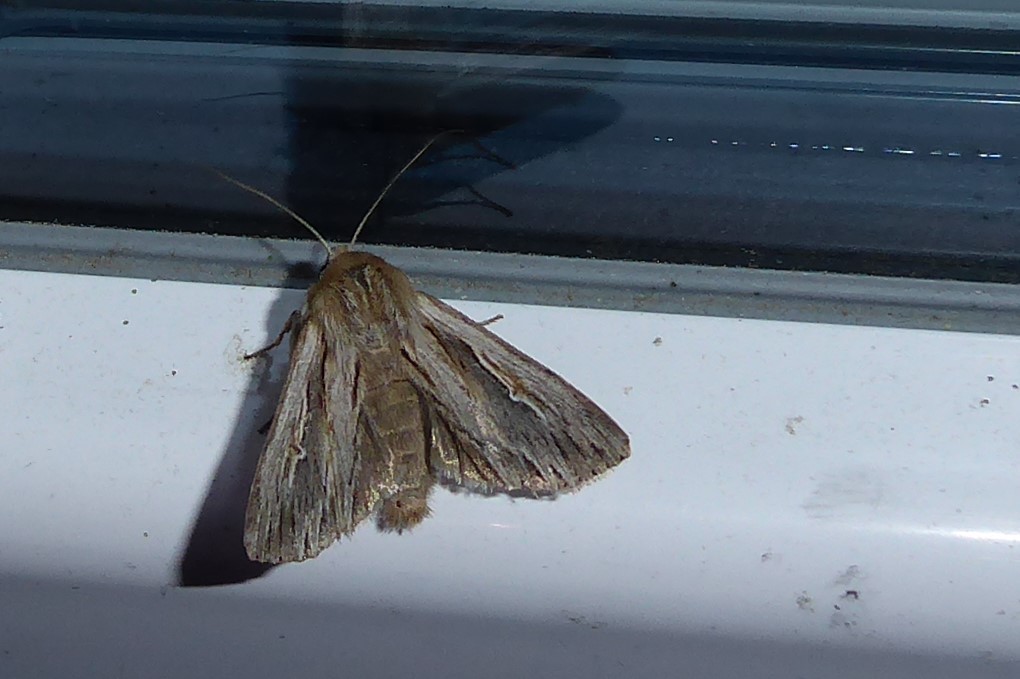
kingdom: Animalia
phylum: Arthropoda
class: Insecta
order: Lepidoptera
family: Noctuidae
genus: Persectania
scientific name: Persectania aversa
